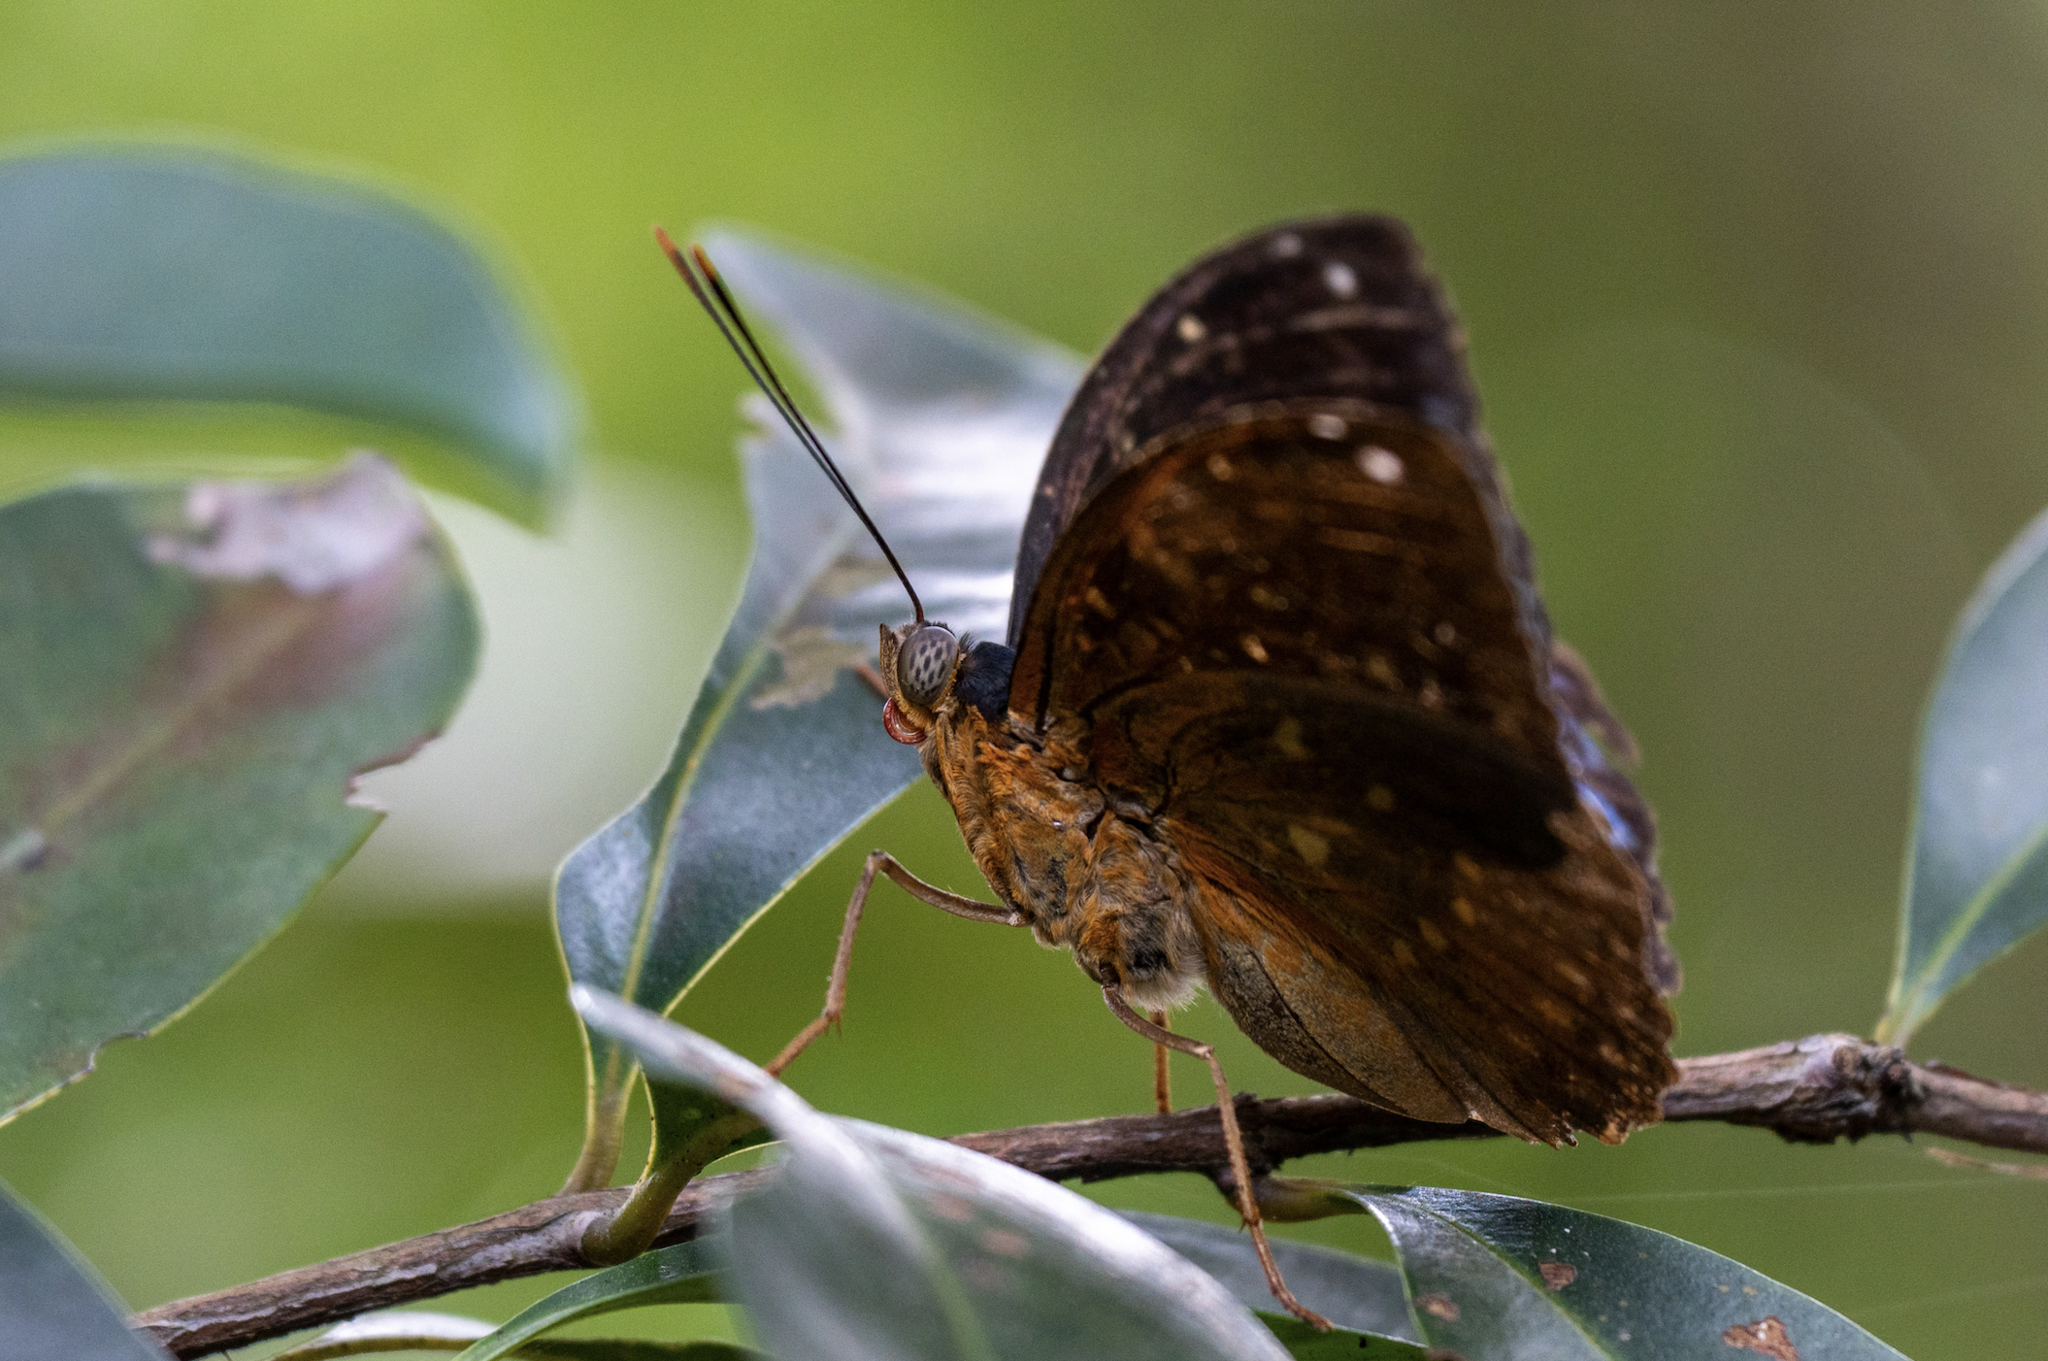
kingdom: Animalia
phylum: Arthropoda
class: Insecta
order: Lepidoptera
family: Nymphalidae
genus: Lexias
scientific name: Lexias pardalis
